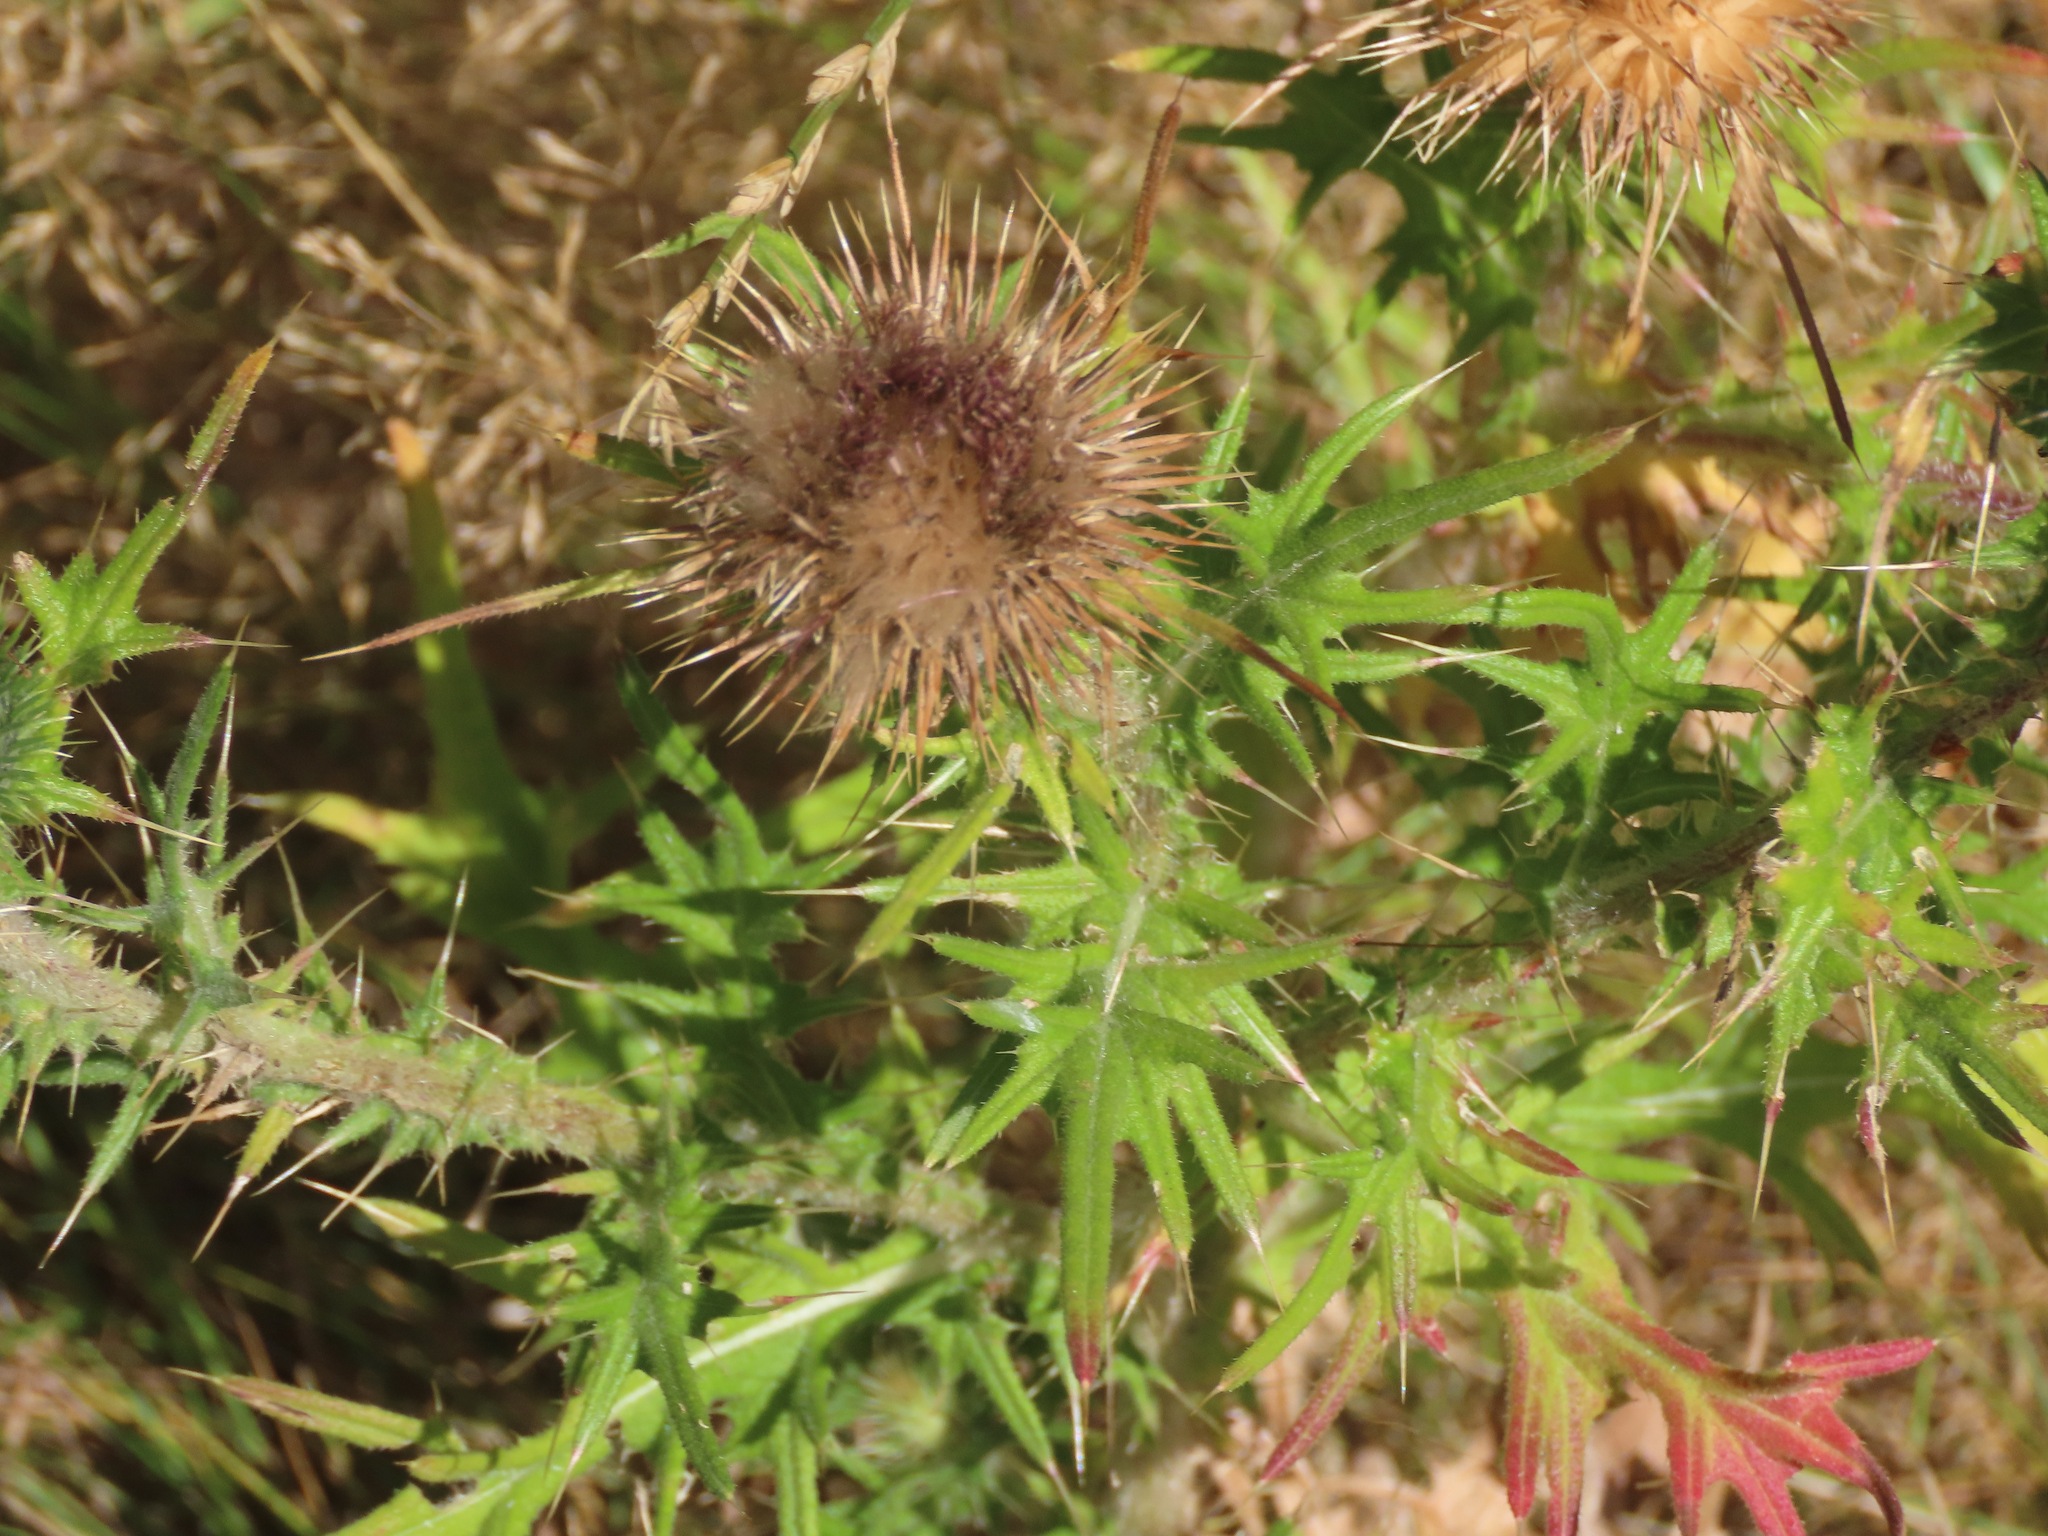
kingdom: Plantae
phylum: Tracheophyta
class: Magnoliopsida
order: Asterales
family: Asteraceae
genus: Cirsium
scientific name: Cirsium vulgare
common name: Bull thistle
